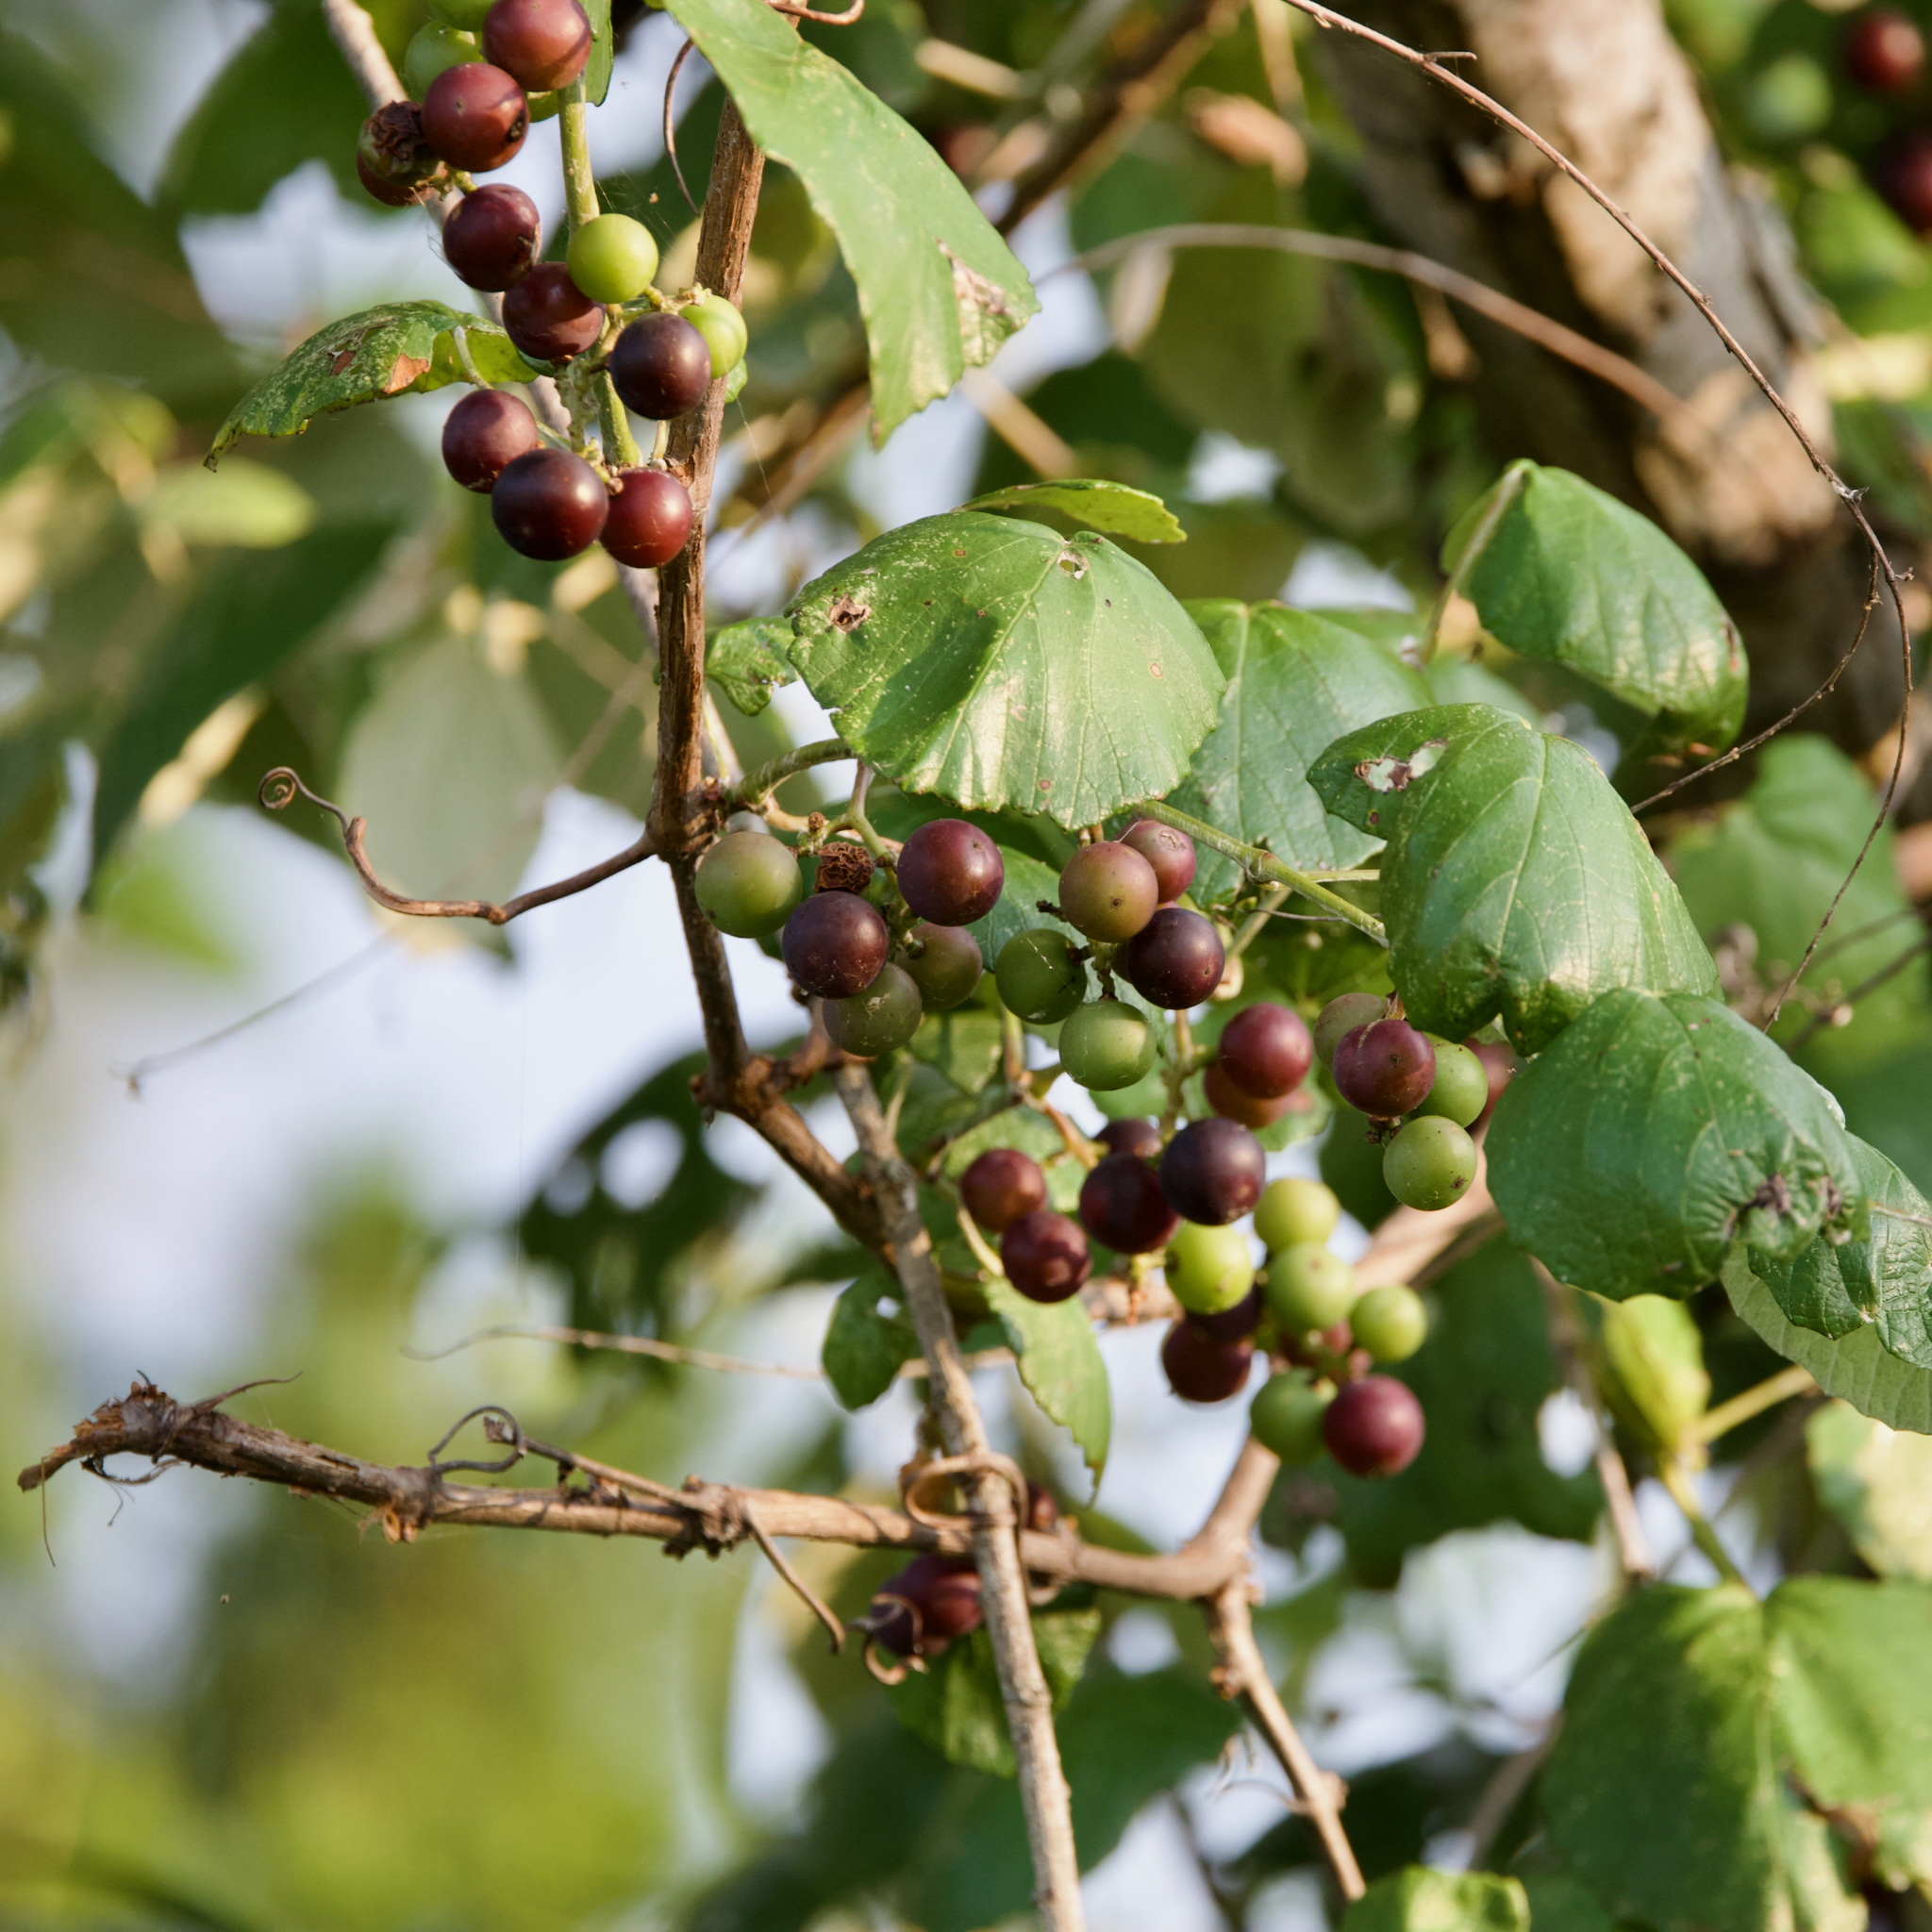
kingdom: Plantae
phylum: Tracheophyta
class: Magnoliopsida
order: Vitales
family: Vitaceae
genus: Vitis
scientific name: Vitis mustangensis
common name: Mustang grape
